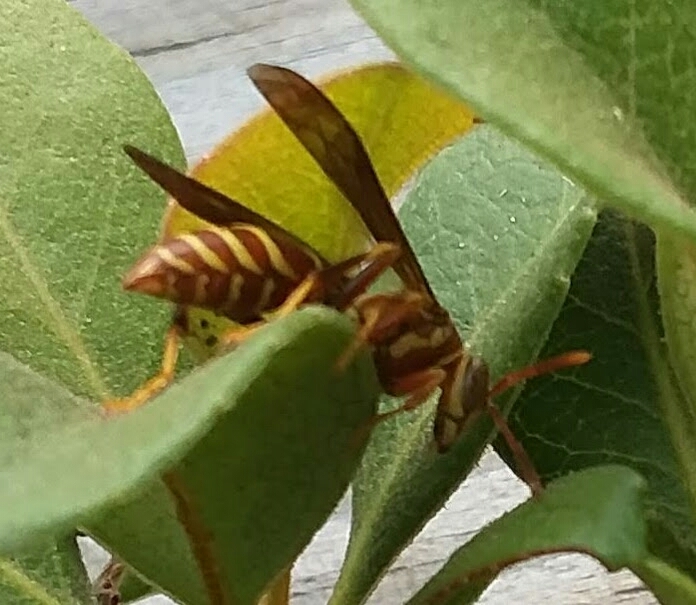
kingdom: Animalia
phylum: Arthropoda
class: Insecta
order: Hymenoptera
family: Eumenidae
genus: Polistes
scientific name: Polistes dorsalis
